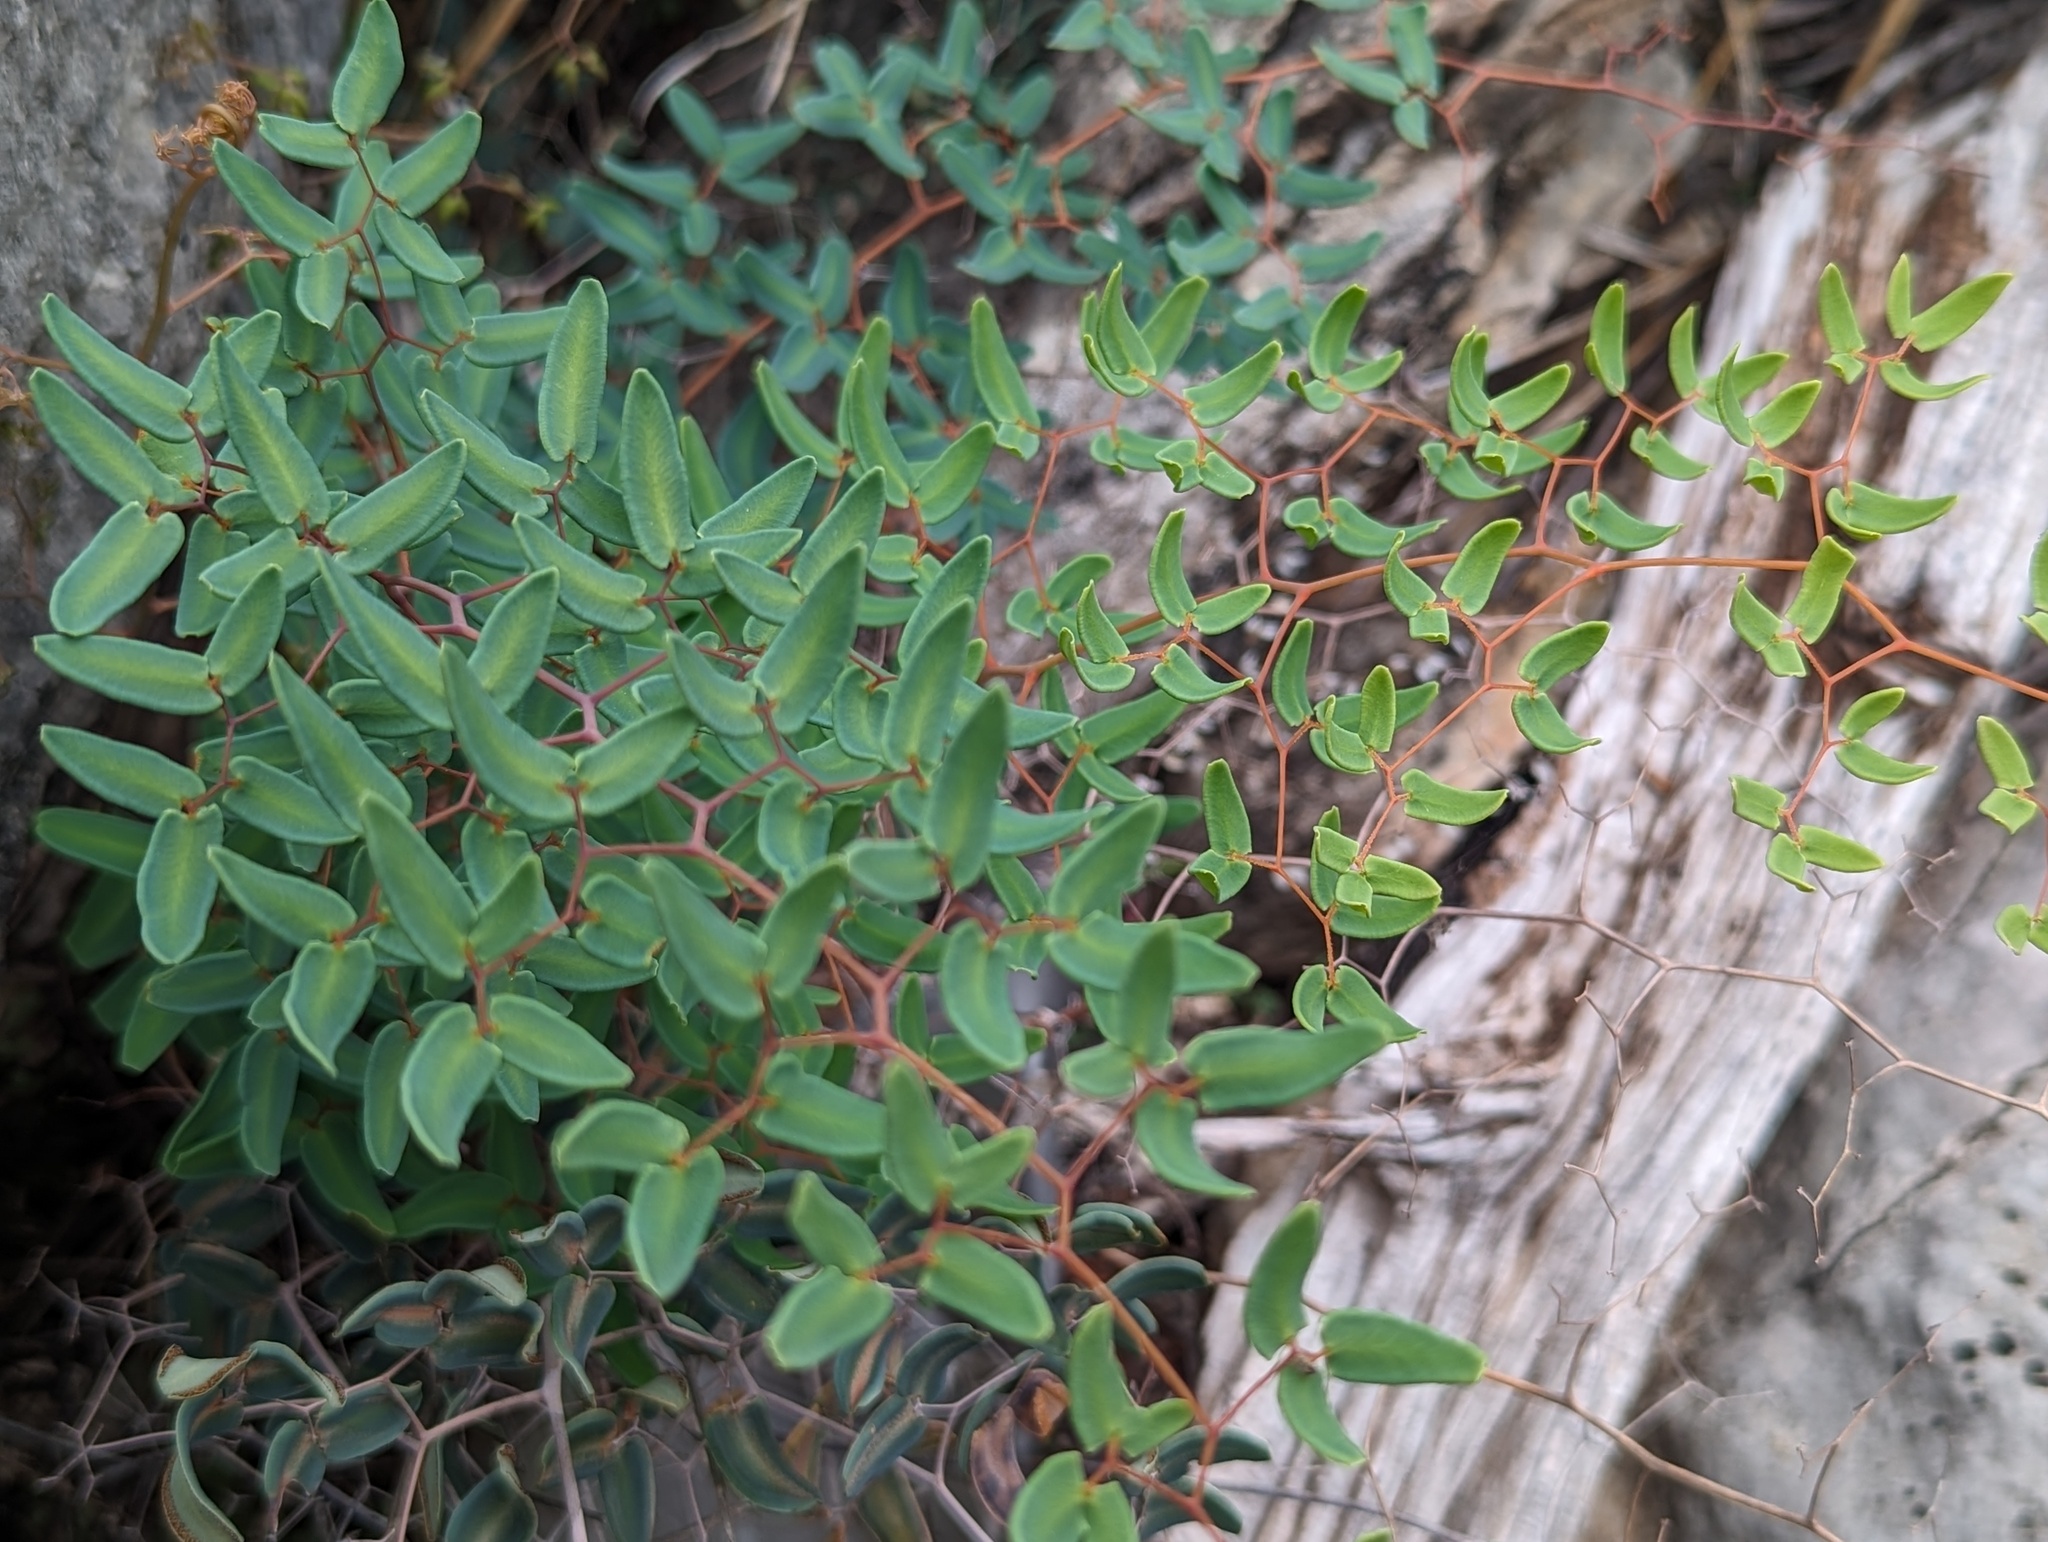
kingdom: Plantae
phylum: Tracheophyta
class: Polypodiopsida
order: Polypodiales
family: Pteridaceae
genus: Pellaea
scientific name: Pellaea ovata
